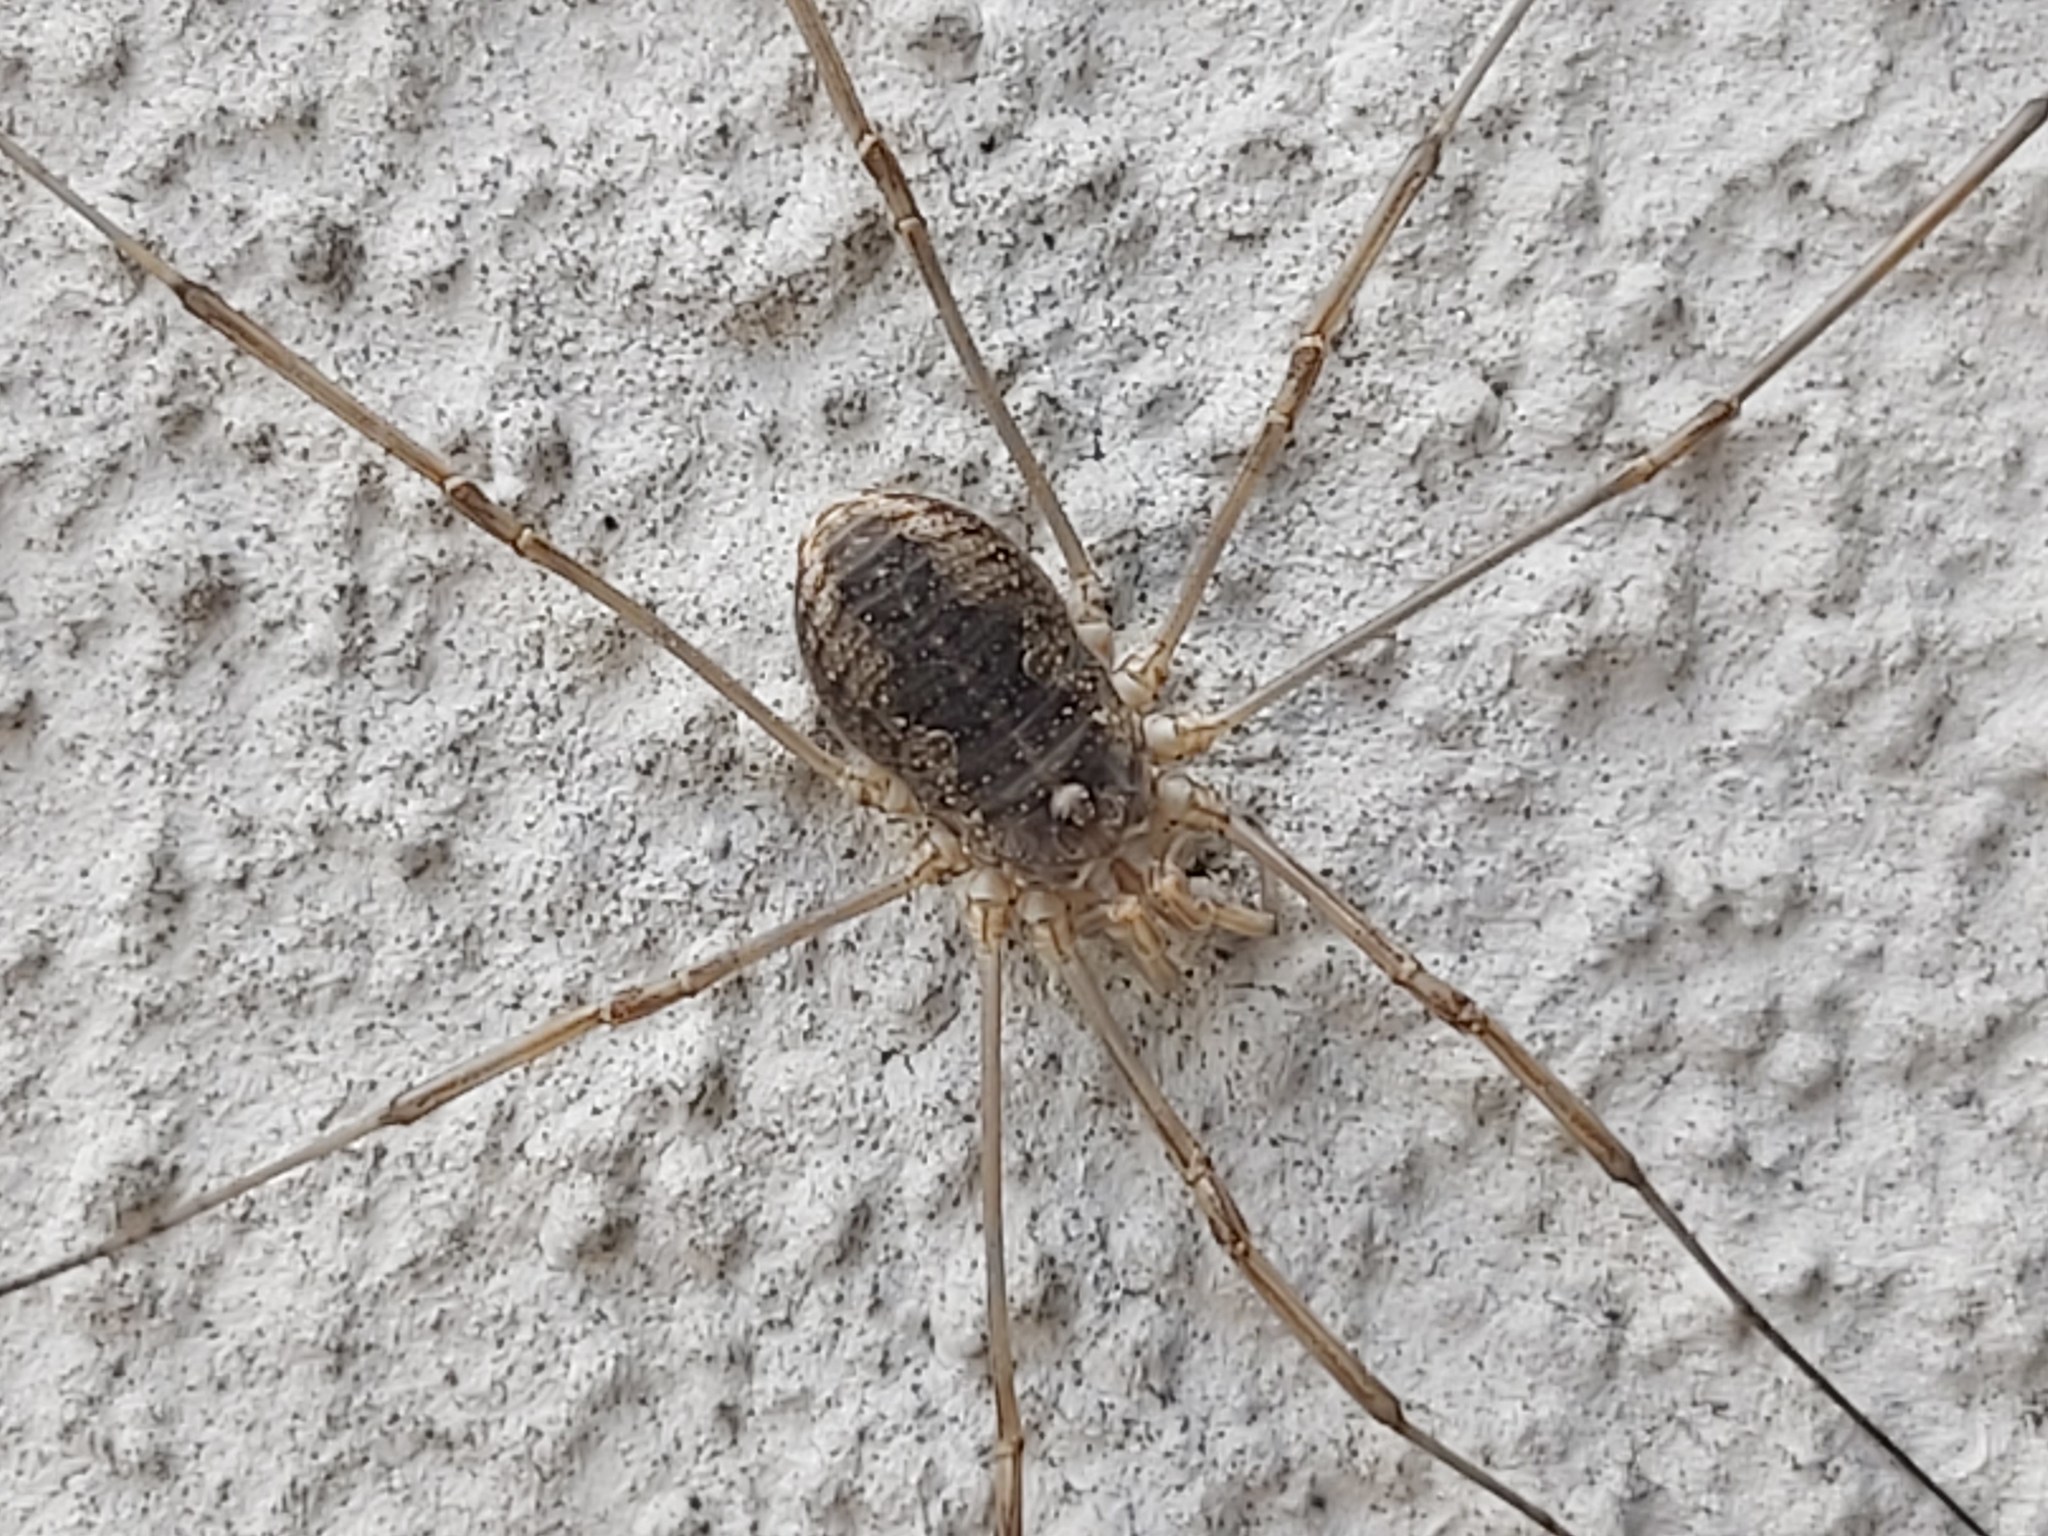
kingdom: Animalia
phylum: Arthropoda
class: Arachnida
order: Opiliones
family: Phalangiidae
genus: Phalangium
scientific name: Phalangium opilio
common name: Daddy longleg
